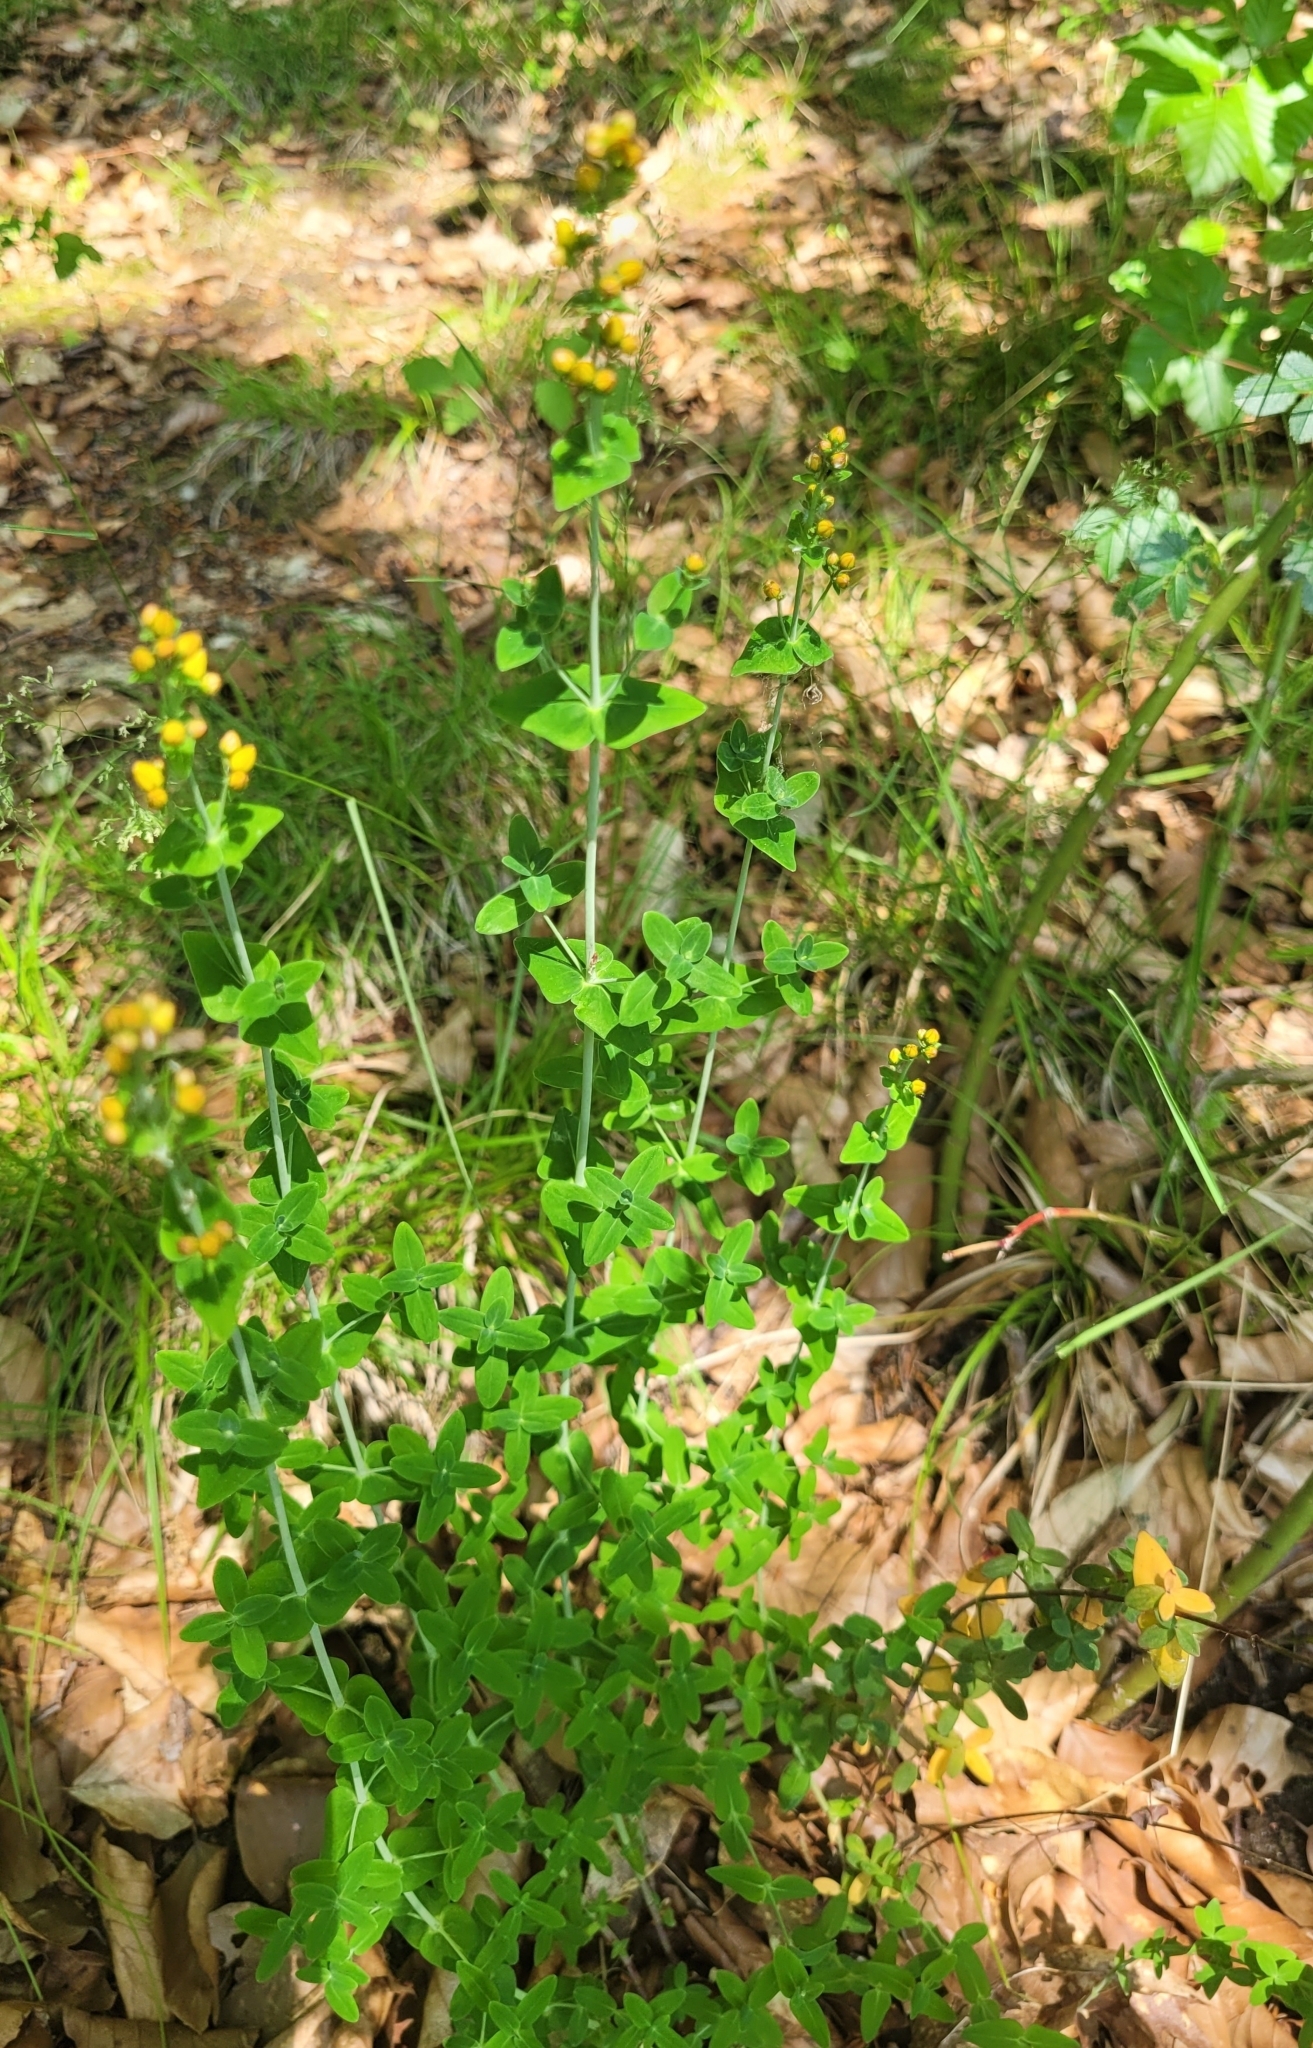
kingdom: Plantae
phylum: Tracheophyta
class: Magnoliopsida
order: Malpighiales
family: Hypericaceae
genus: Hypericum
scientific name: Hypericum pulchrum
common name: Slender st. john's-wort
